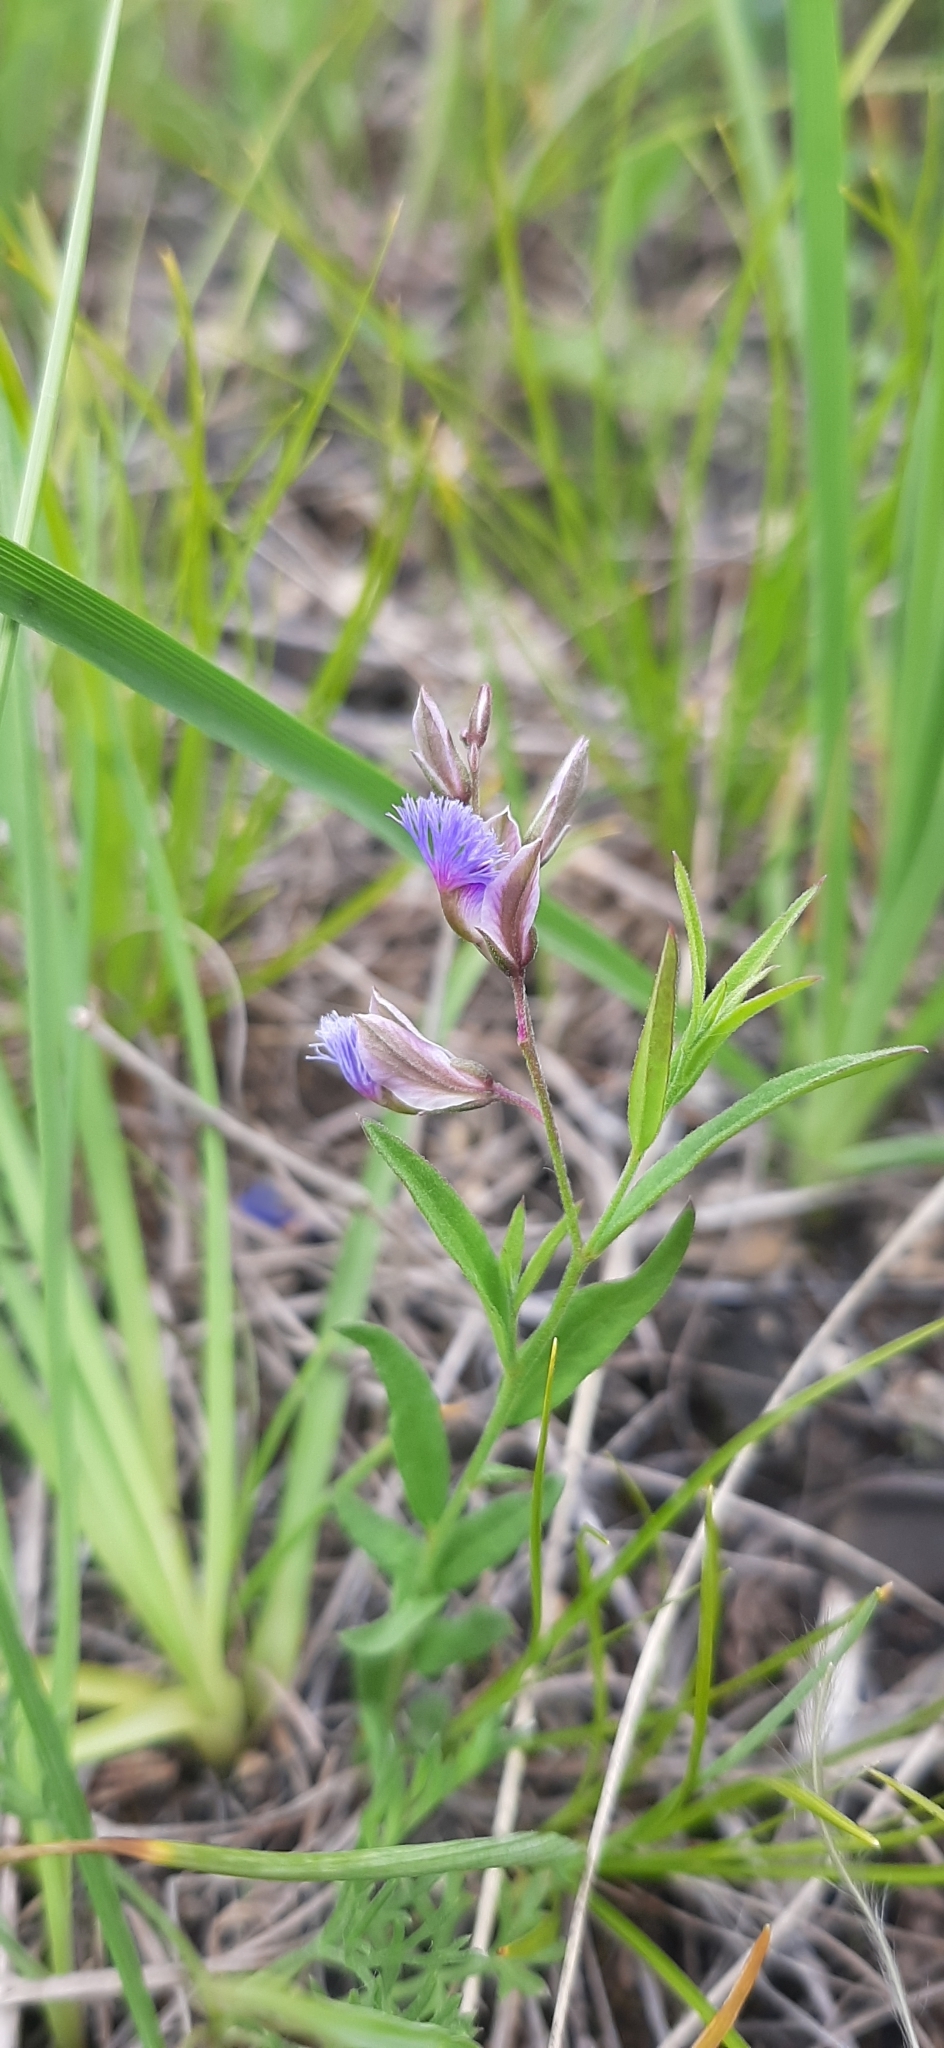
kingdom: Plantae
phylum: Tracheophyta
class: Magnoliopsida
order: Fabales
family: Polygalaceae
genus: Polygala
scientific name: Polygala sibirica
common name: Siberian polygala
